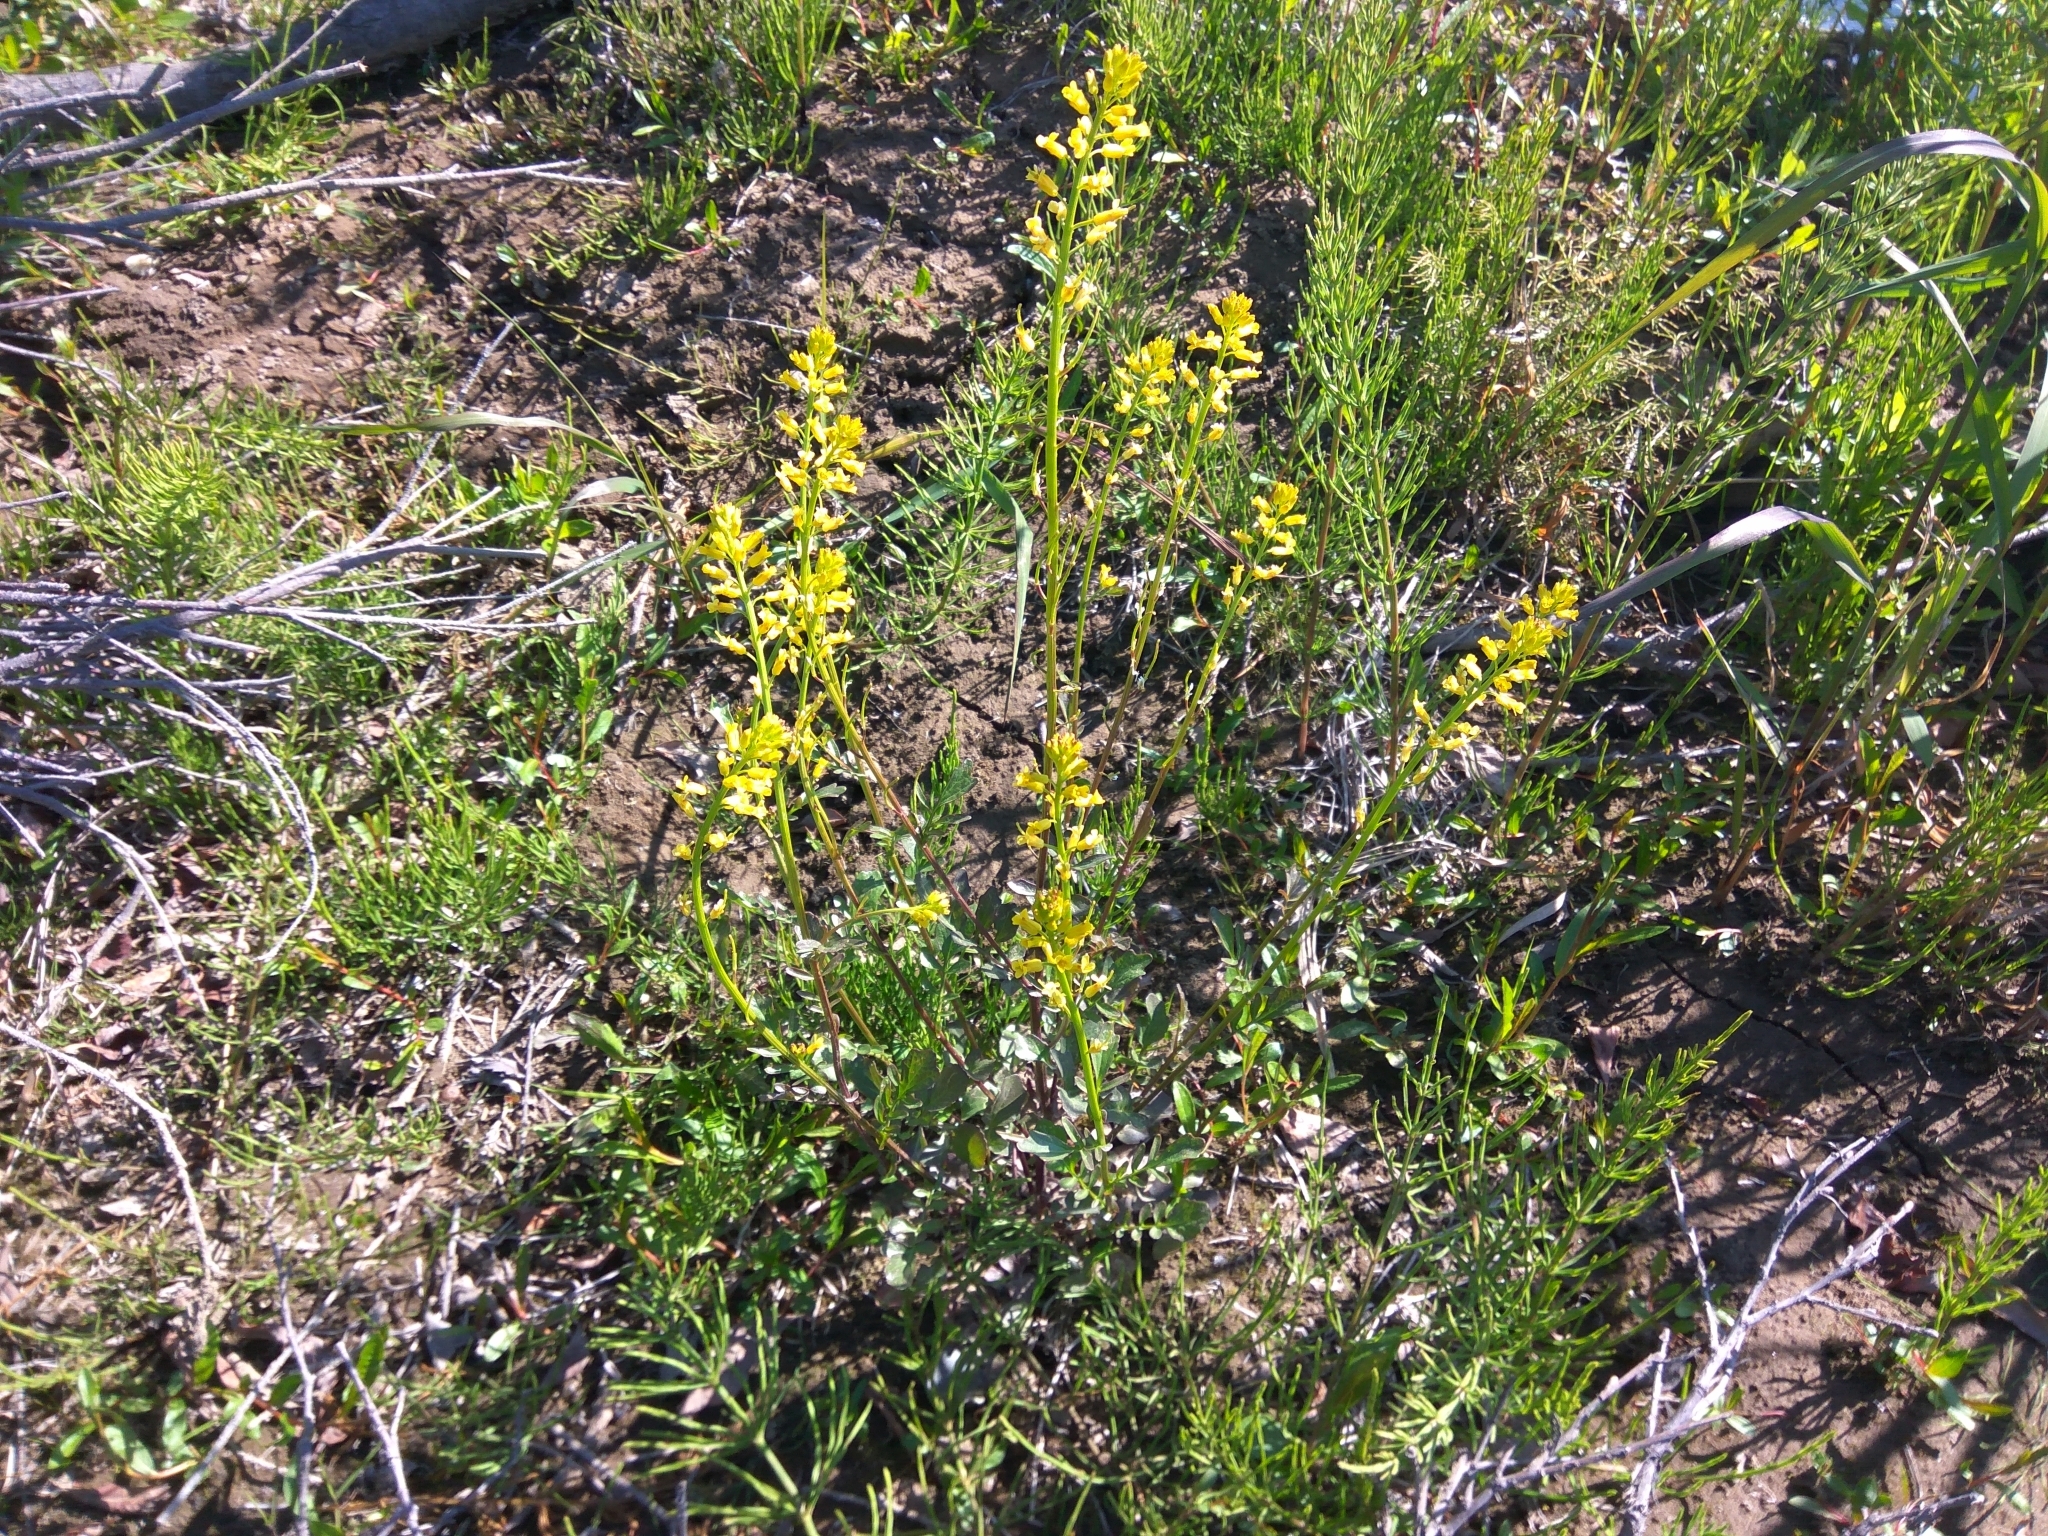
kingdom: Plantae
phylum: Tracheophyta
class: Magnoliopsida
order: Brassicales
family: Brassicaceae
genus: Barbarea
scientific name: Barbarea orthoceras
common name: American wintercress
